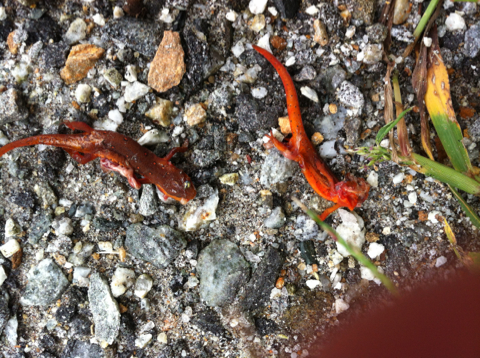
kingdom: Animalia
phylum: Chordata
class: Amphibia
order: Caudata
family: Salamandridae
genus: Notophthalmus
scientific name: Notophthalmus viridescens
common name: Eastern newt
